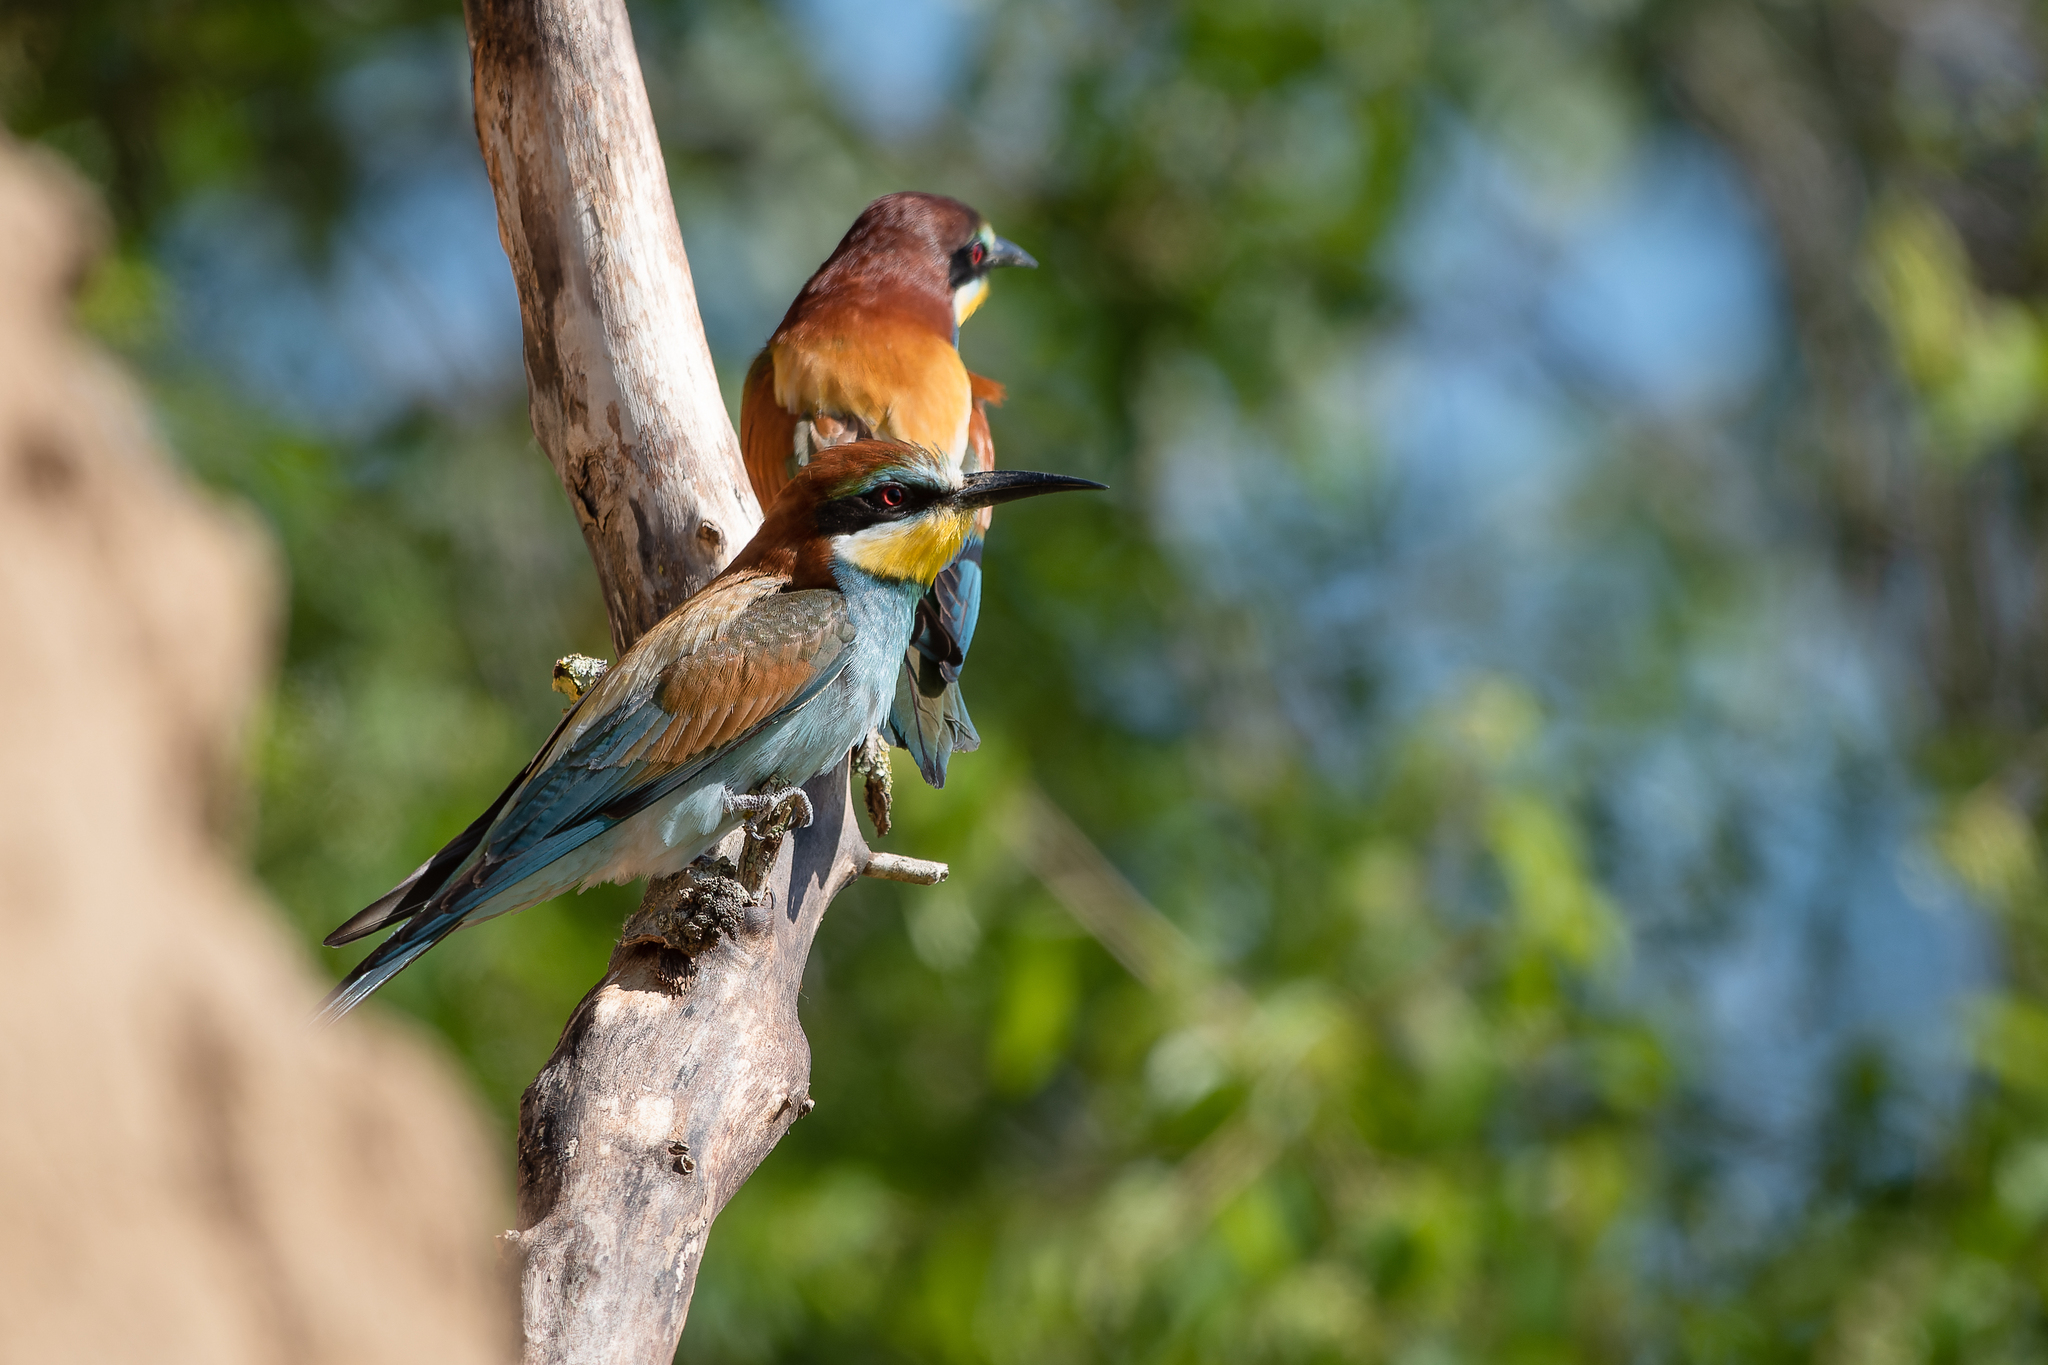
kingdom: Animalia
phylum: Chordata
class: Aves
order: Coraciiformes
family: Meropidae
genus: Merops
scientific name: Merops apiaster
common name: European bee-eater
